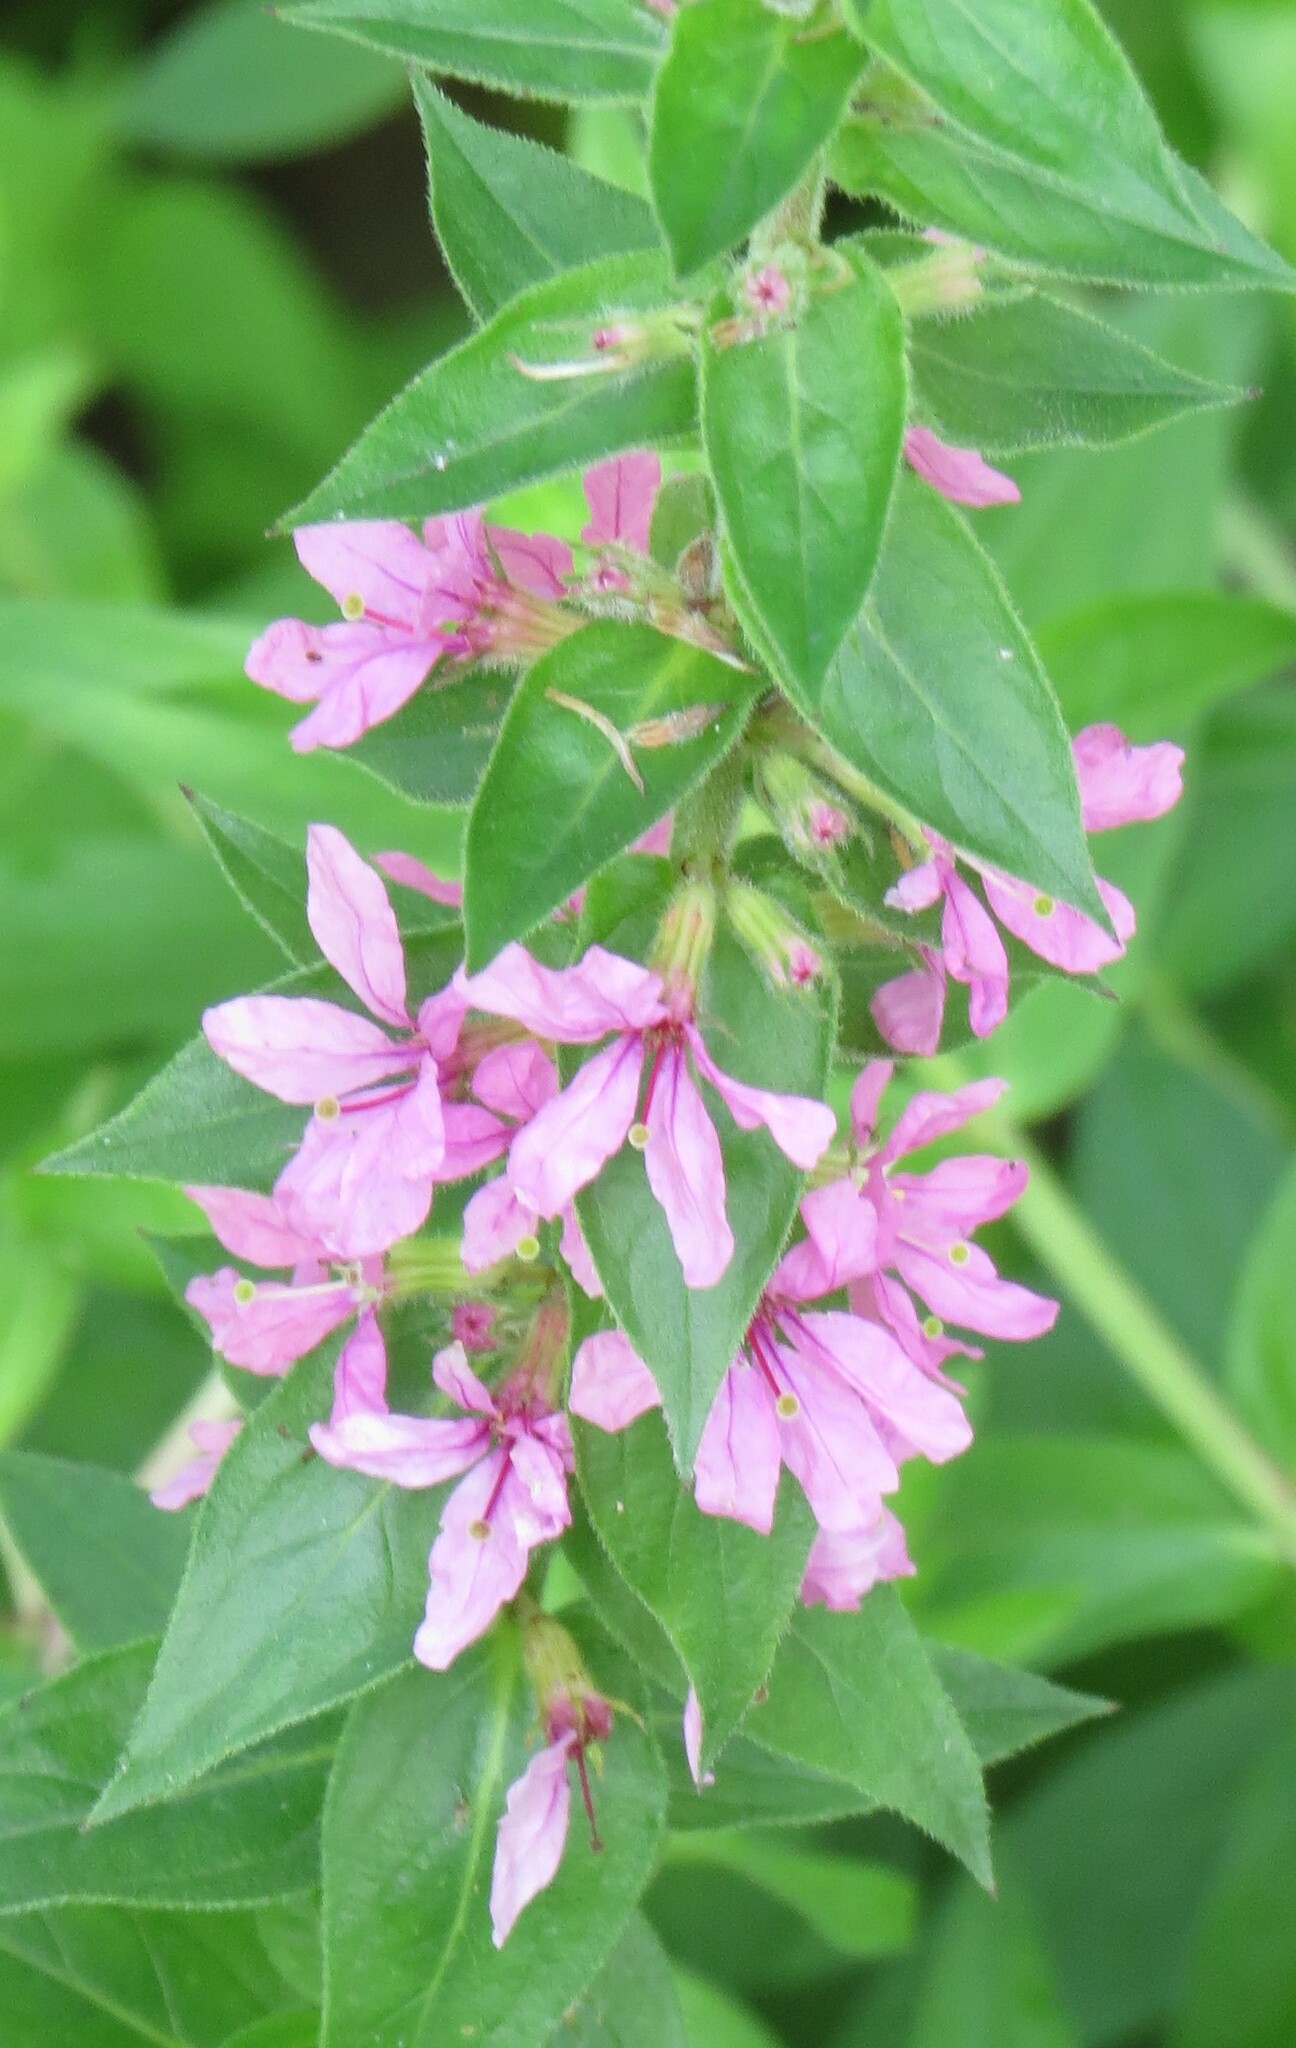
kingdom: Plantae
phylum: Tracheophyta
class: Magnoliopsida
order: Myrtales
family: Lythraceae
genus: Lythrum
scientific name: Lythrum salicaria
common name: Purple loosestrife
